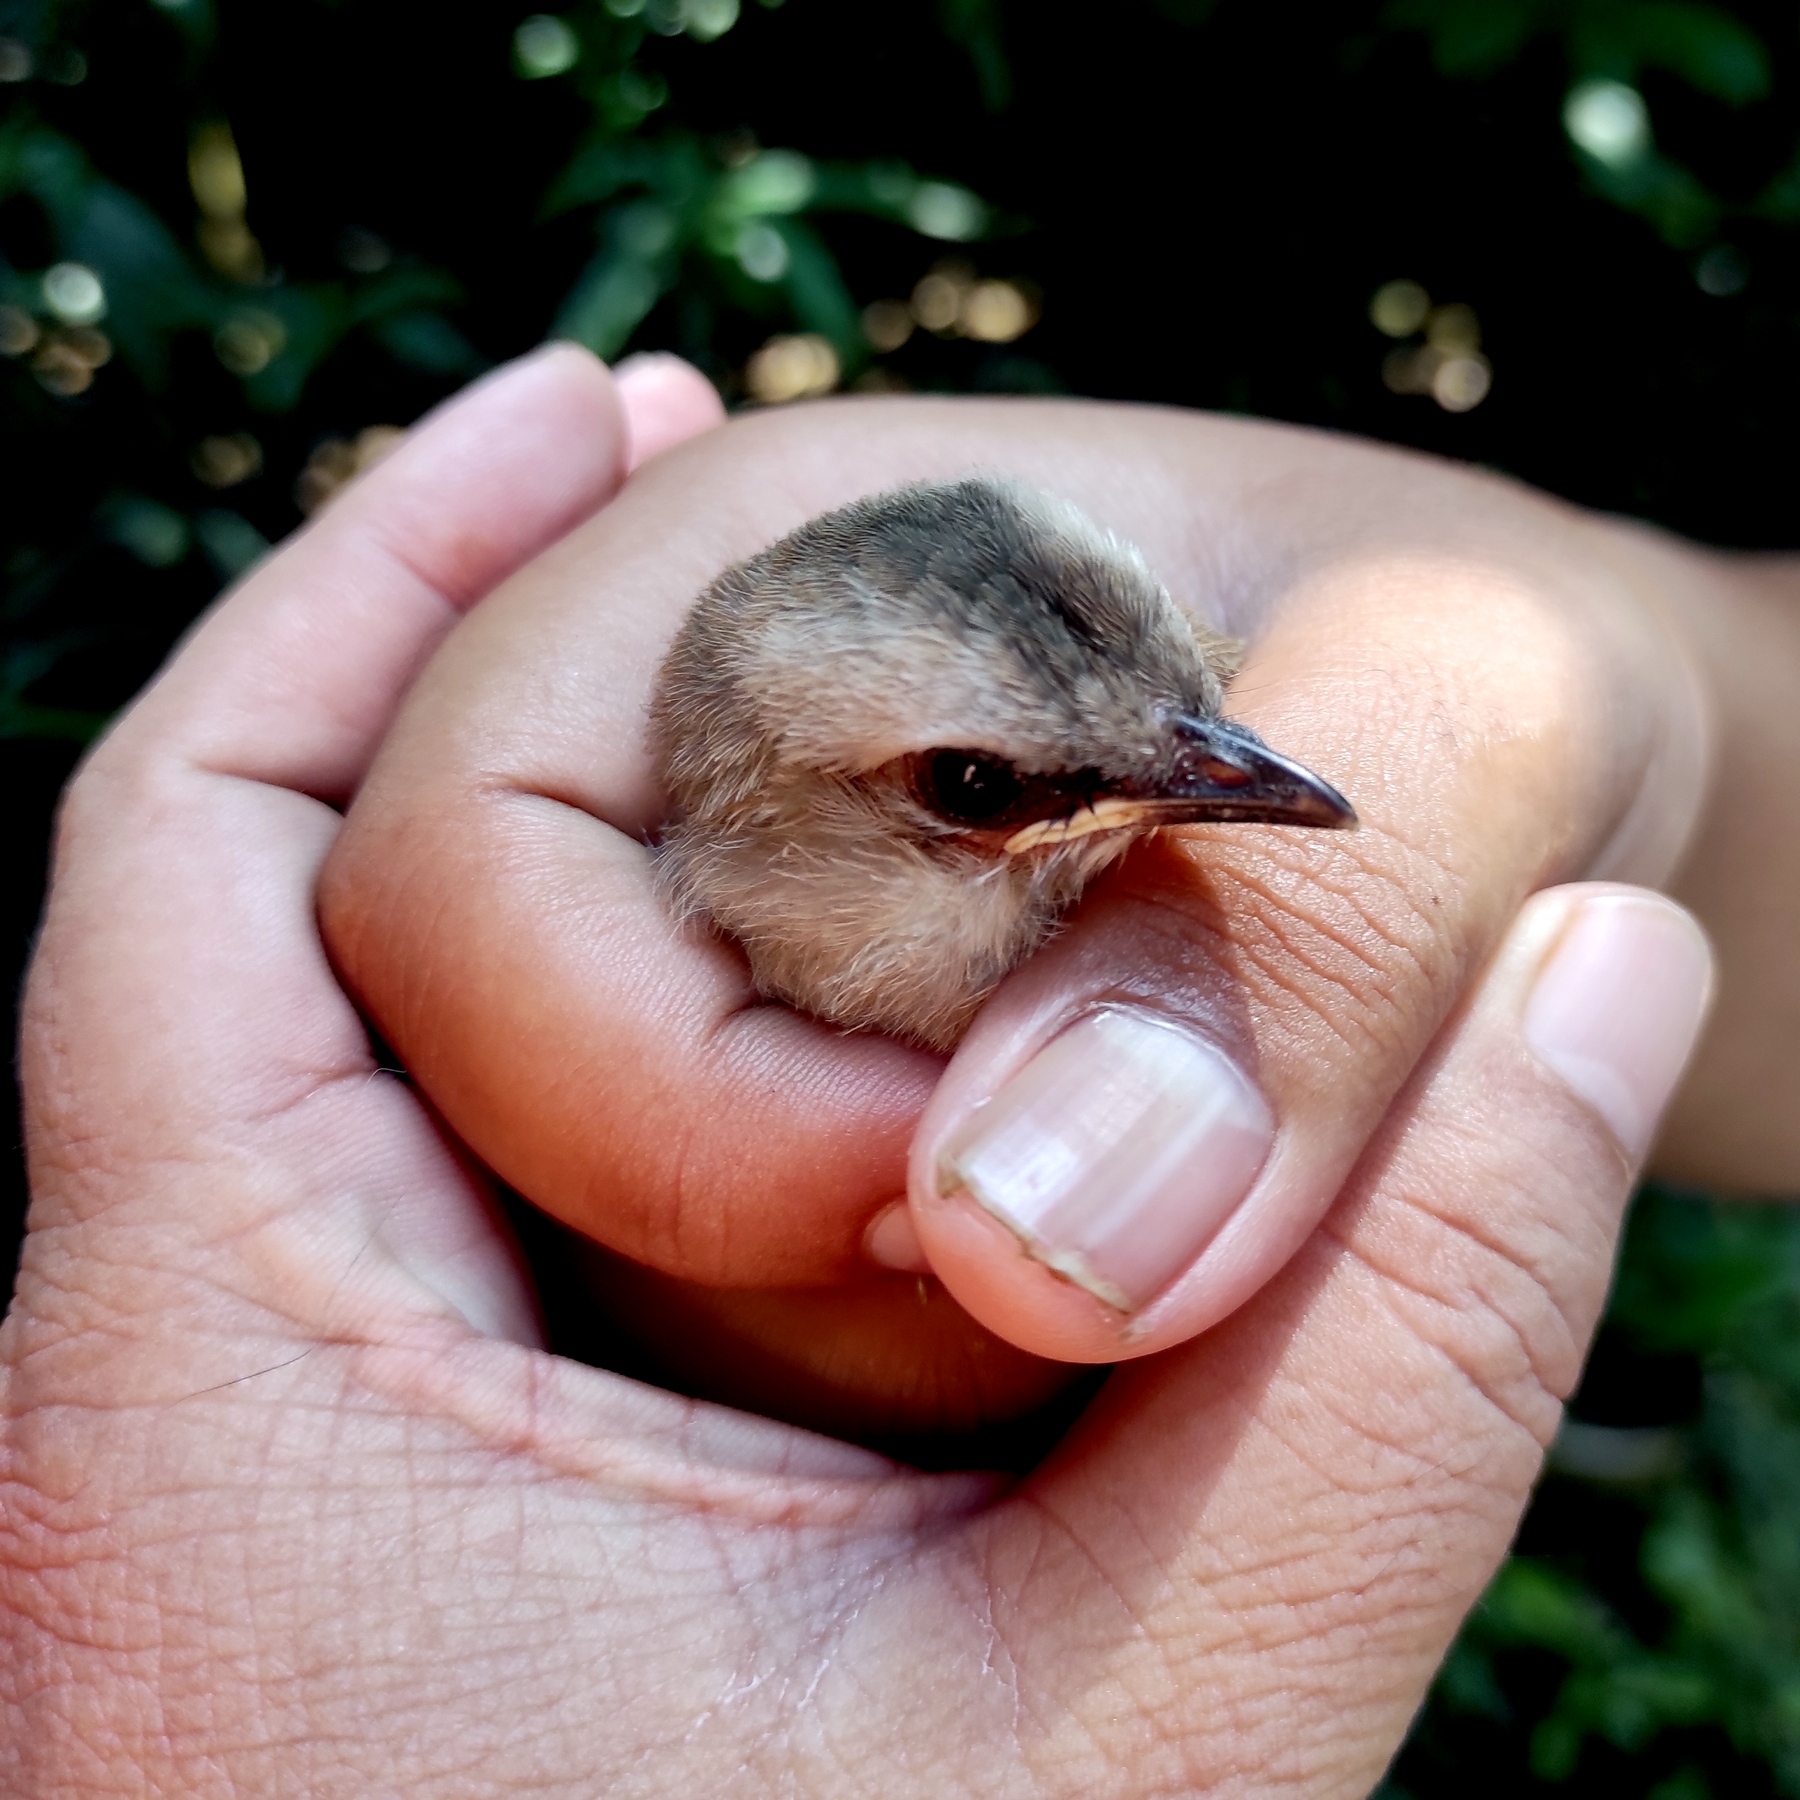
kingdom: Animalia
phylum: Chordata
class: Aves
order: Passeriformes
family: Pycnonotidae
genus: Pycnonotus
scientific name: Pycnonotus goiavier
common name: Yellow-vented bulbul
